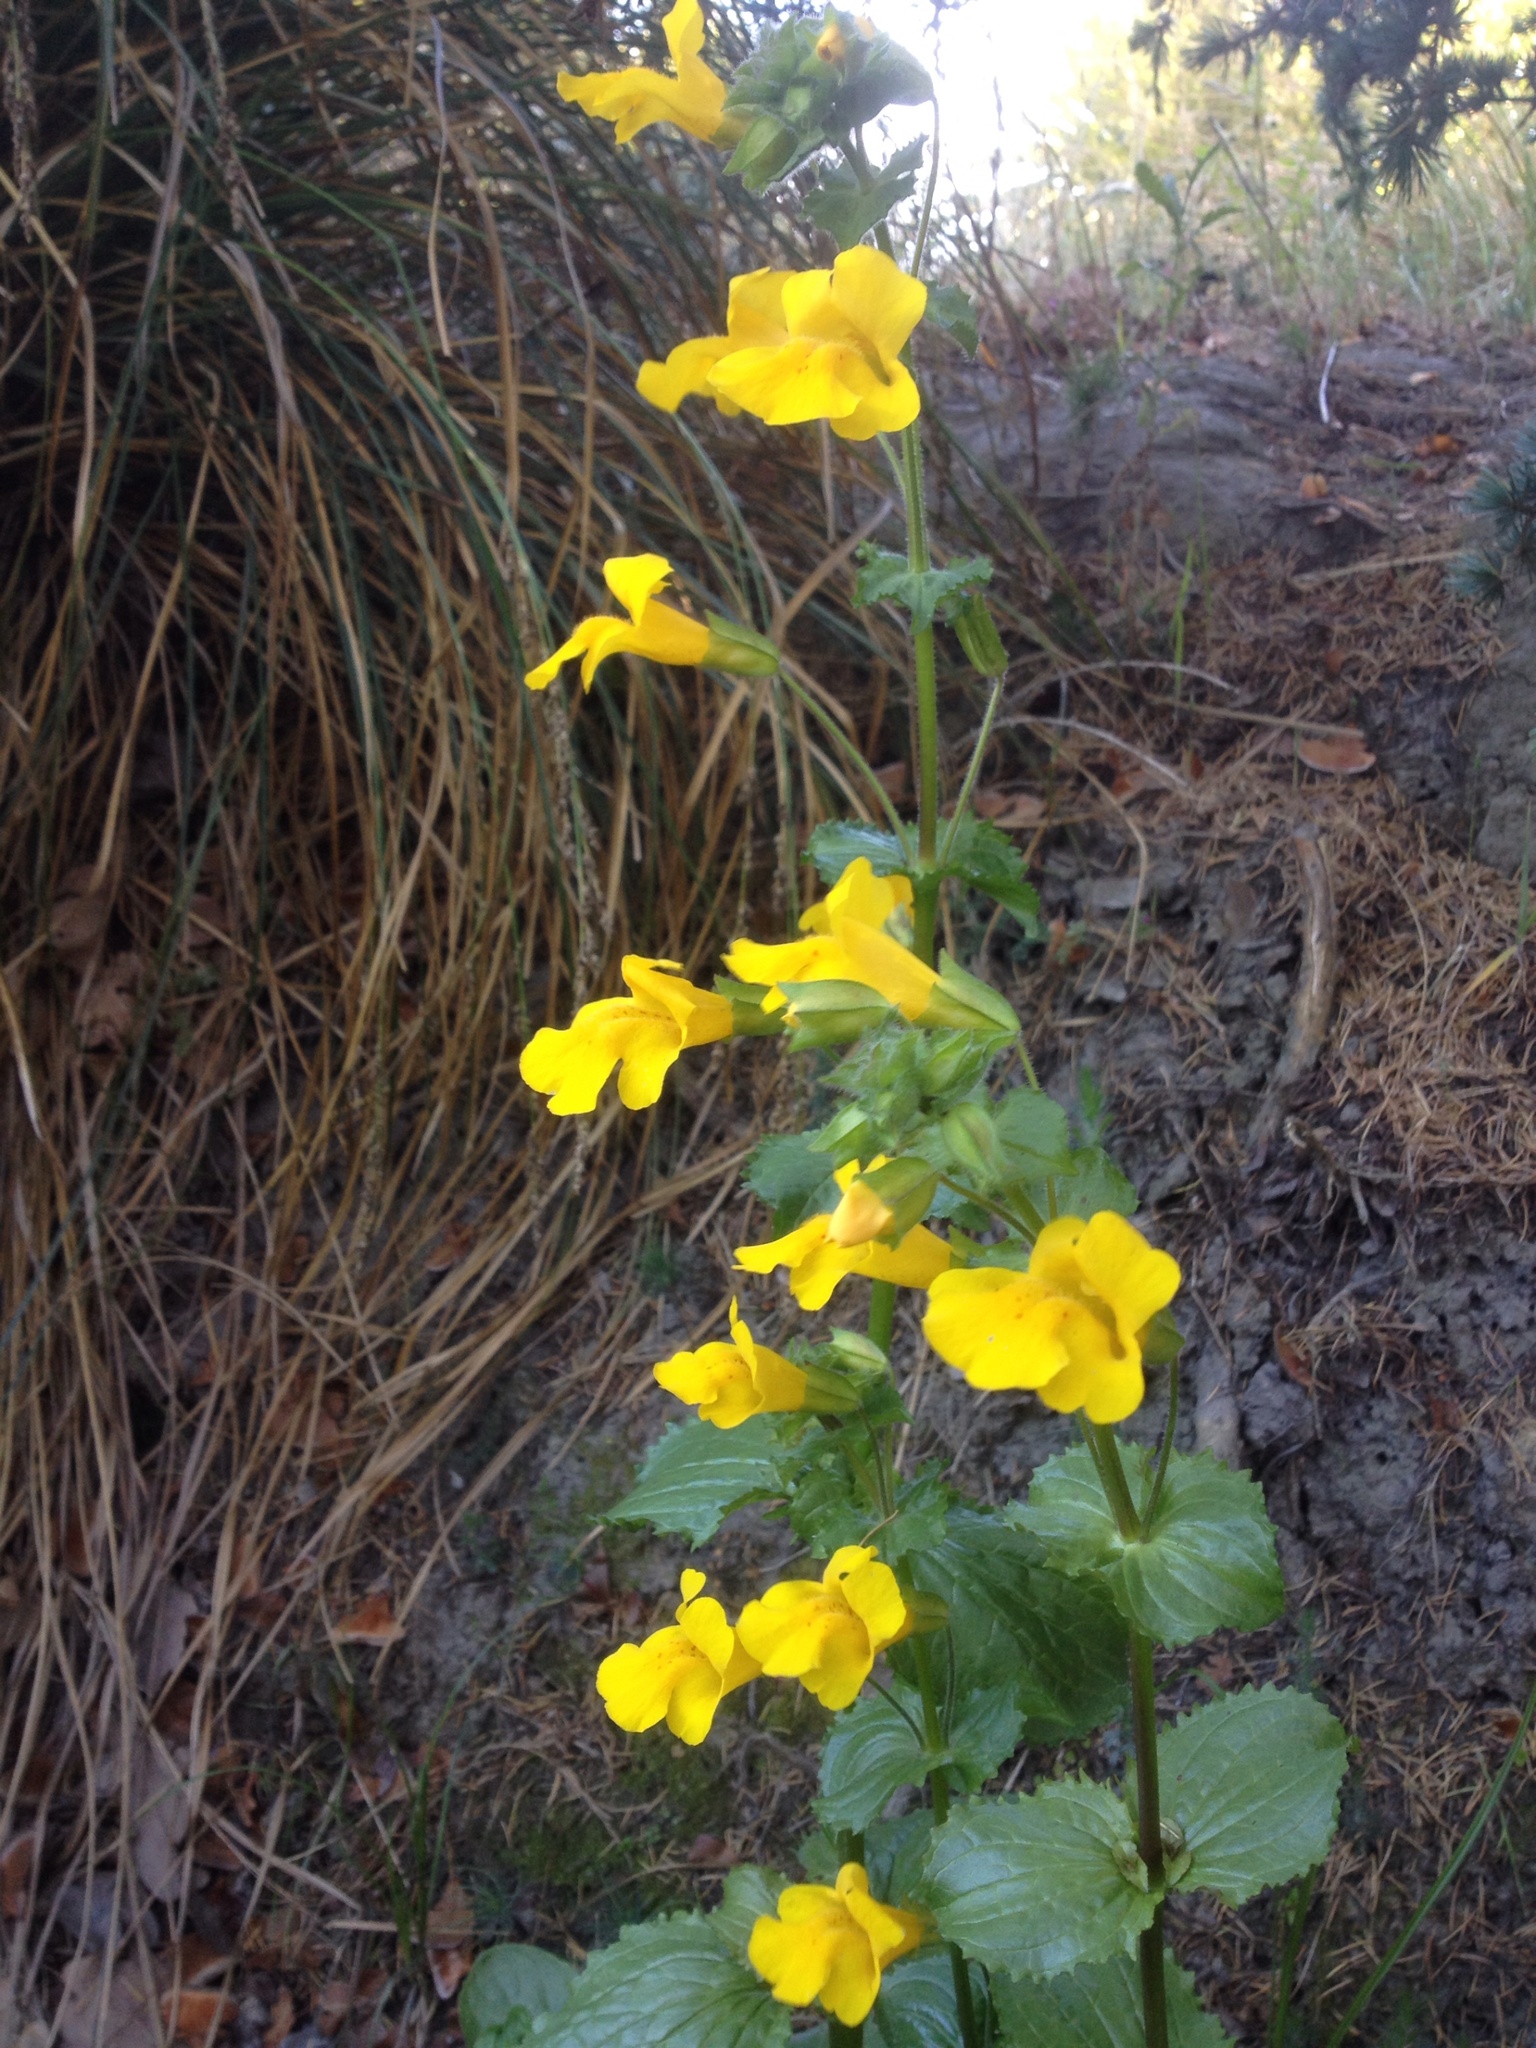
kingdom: Plantae
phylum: Tracheophyta
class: Magnoliopsida
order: Lamiales
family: Phrymaceae
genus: Erythranthe
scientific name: Erythranthe guttata
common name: Monkeyflower
